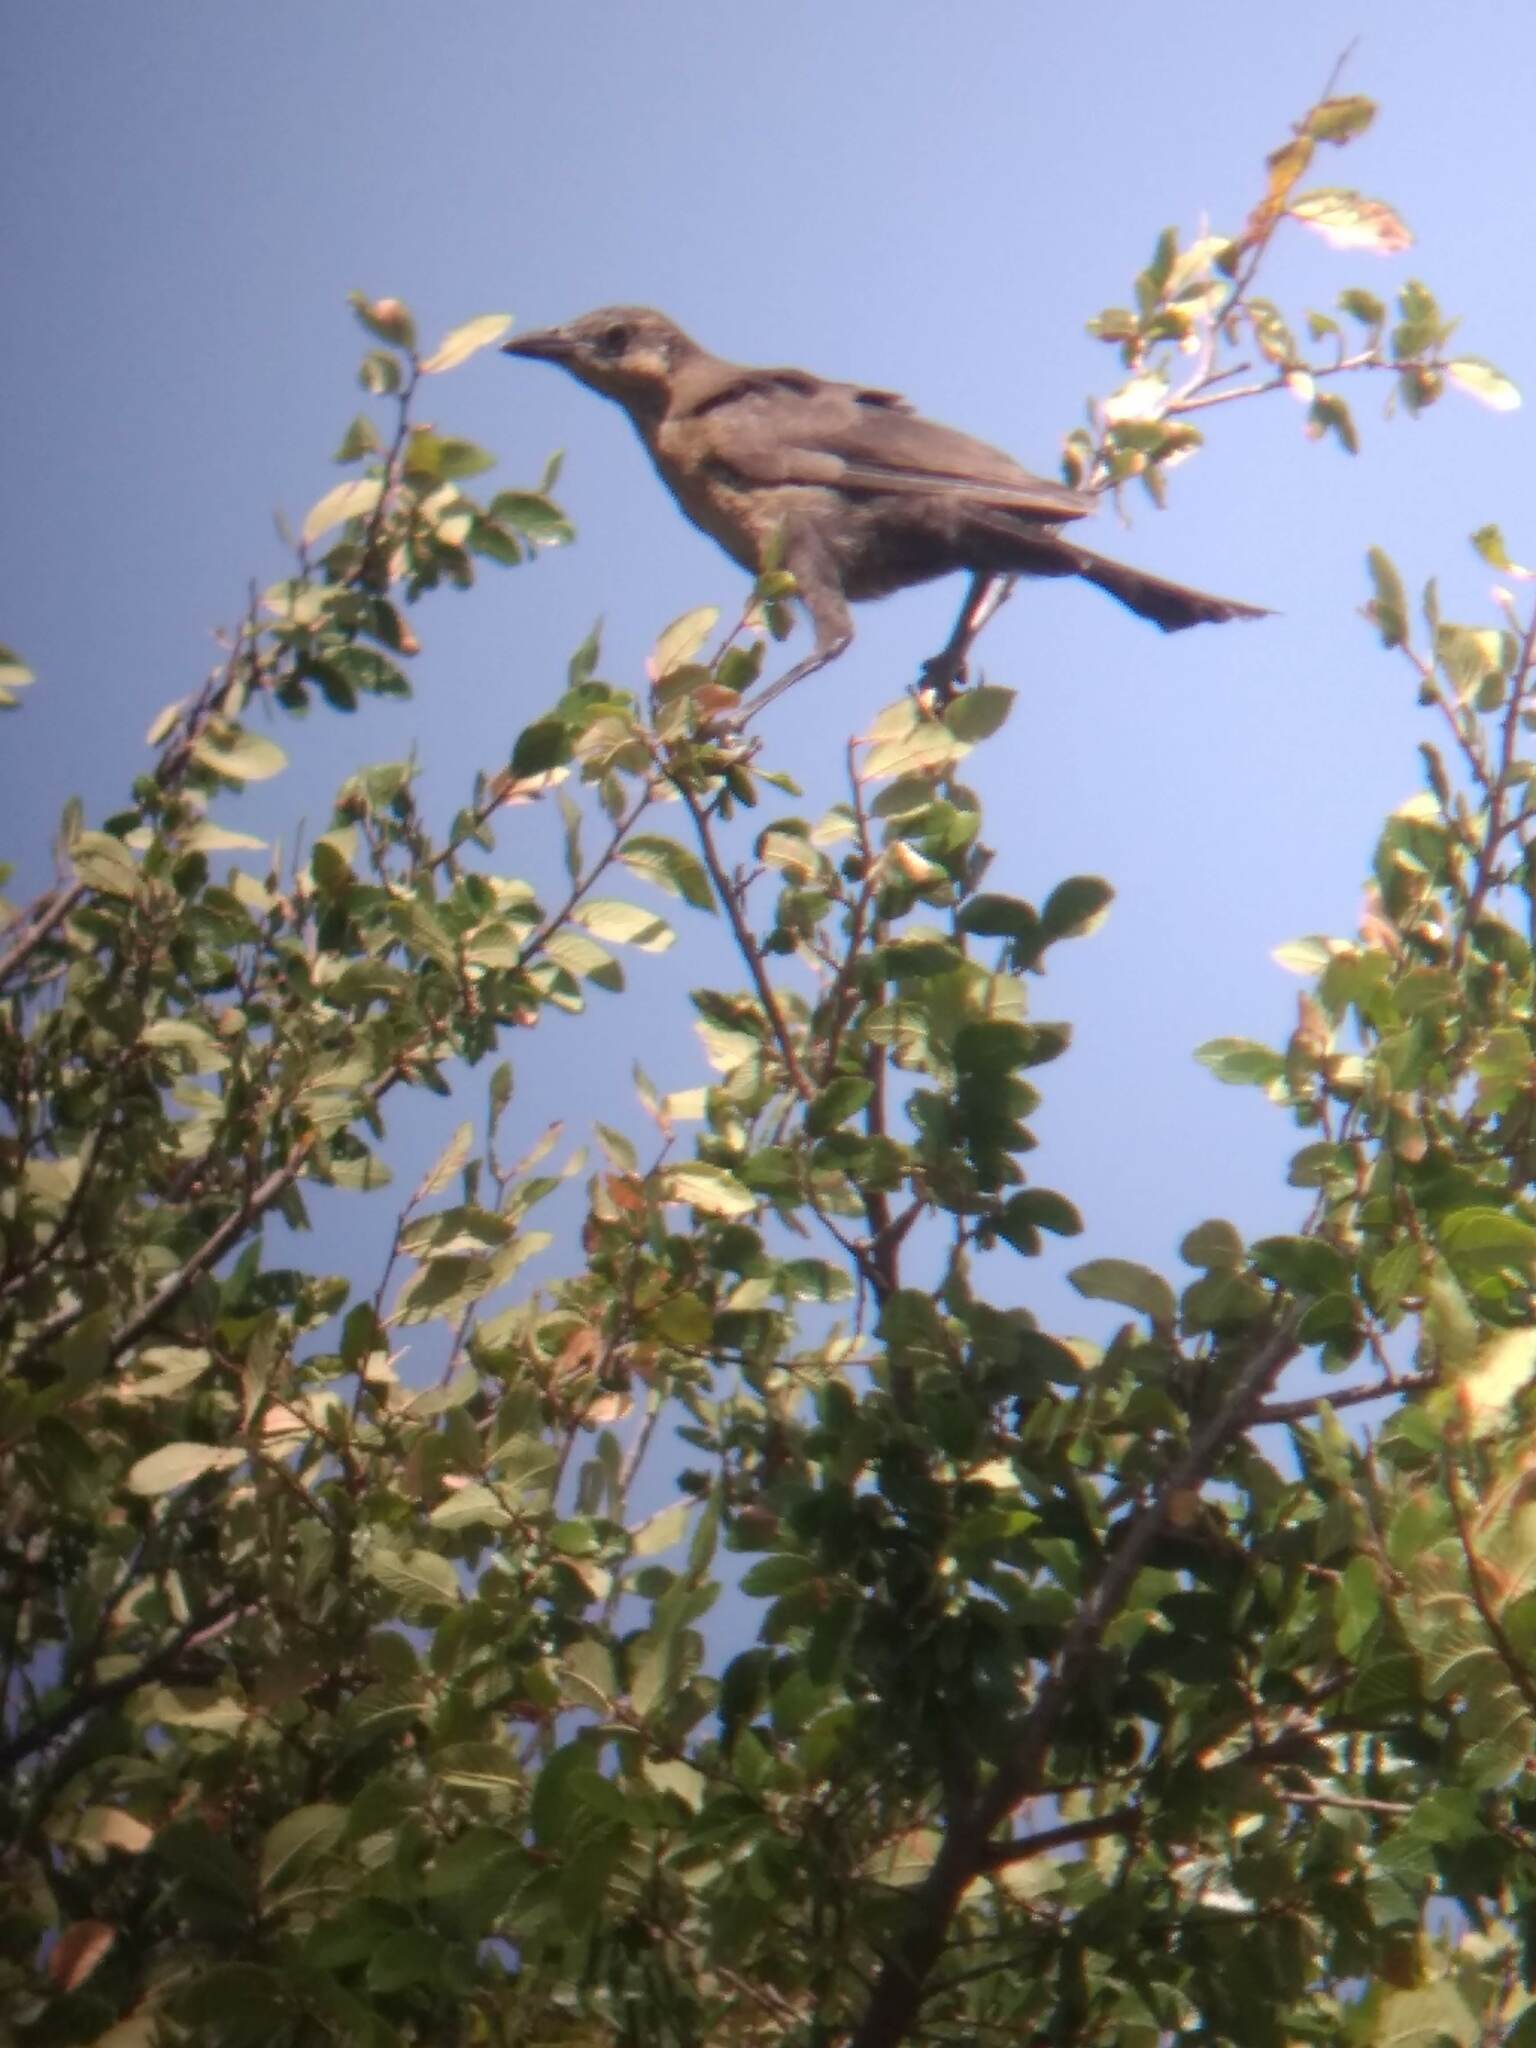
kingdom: Animalia
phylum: Chordata
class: Aves
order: Passeriformes
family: Icteridae
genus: Quiscalus
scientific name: Quiscalus mexicanus
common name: Great-tailed grackle
